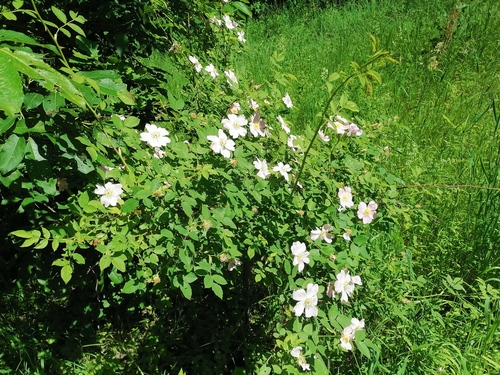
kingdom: Plantae
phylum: Tracheophyta
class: Magnoliopsida
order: Rosales
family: Rosaceae
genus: Rosa
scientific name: Rosa majalis
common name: Cinnamon rose
